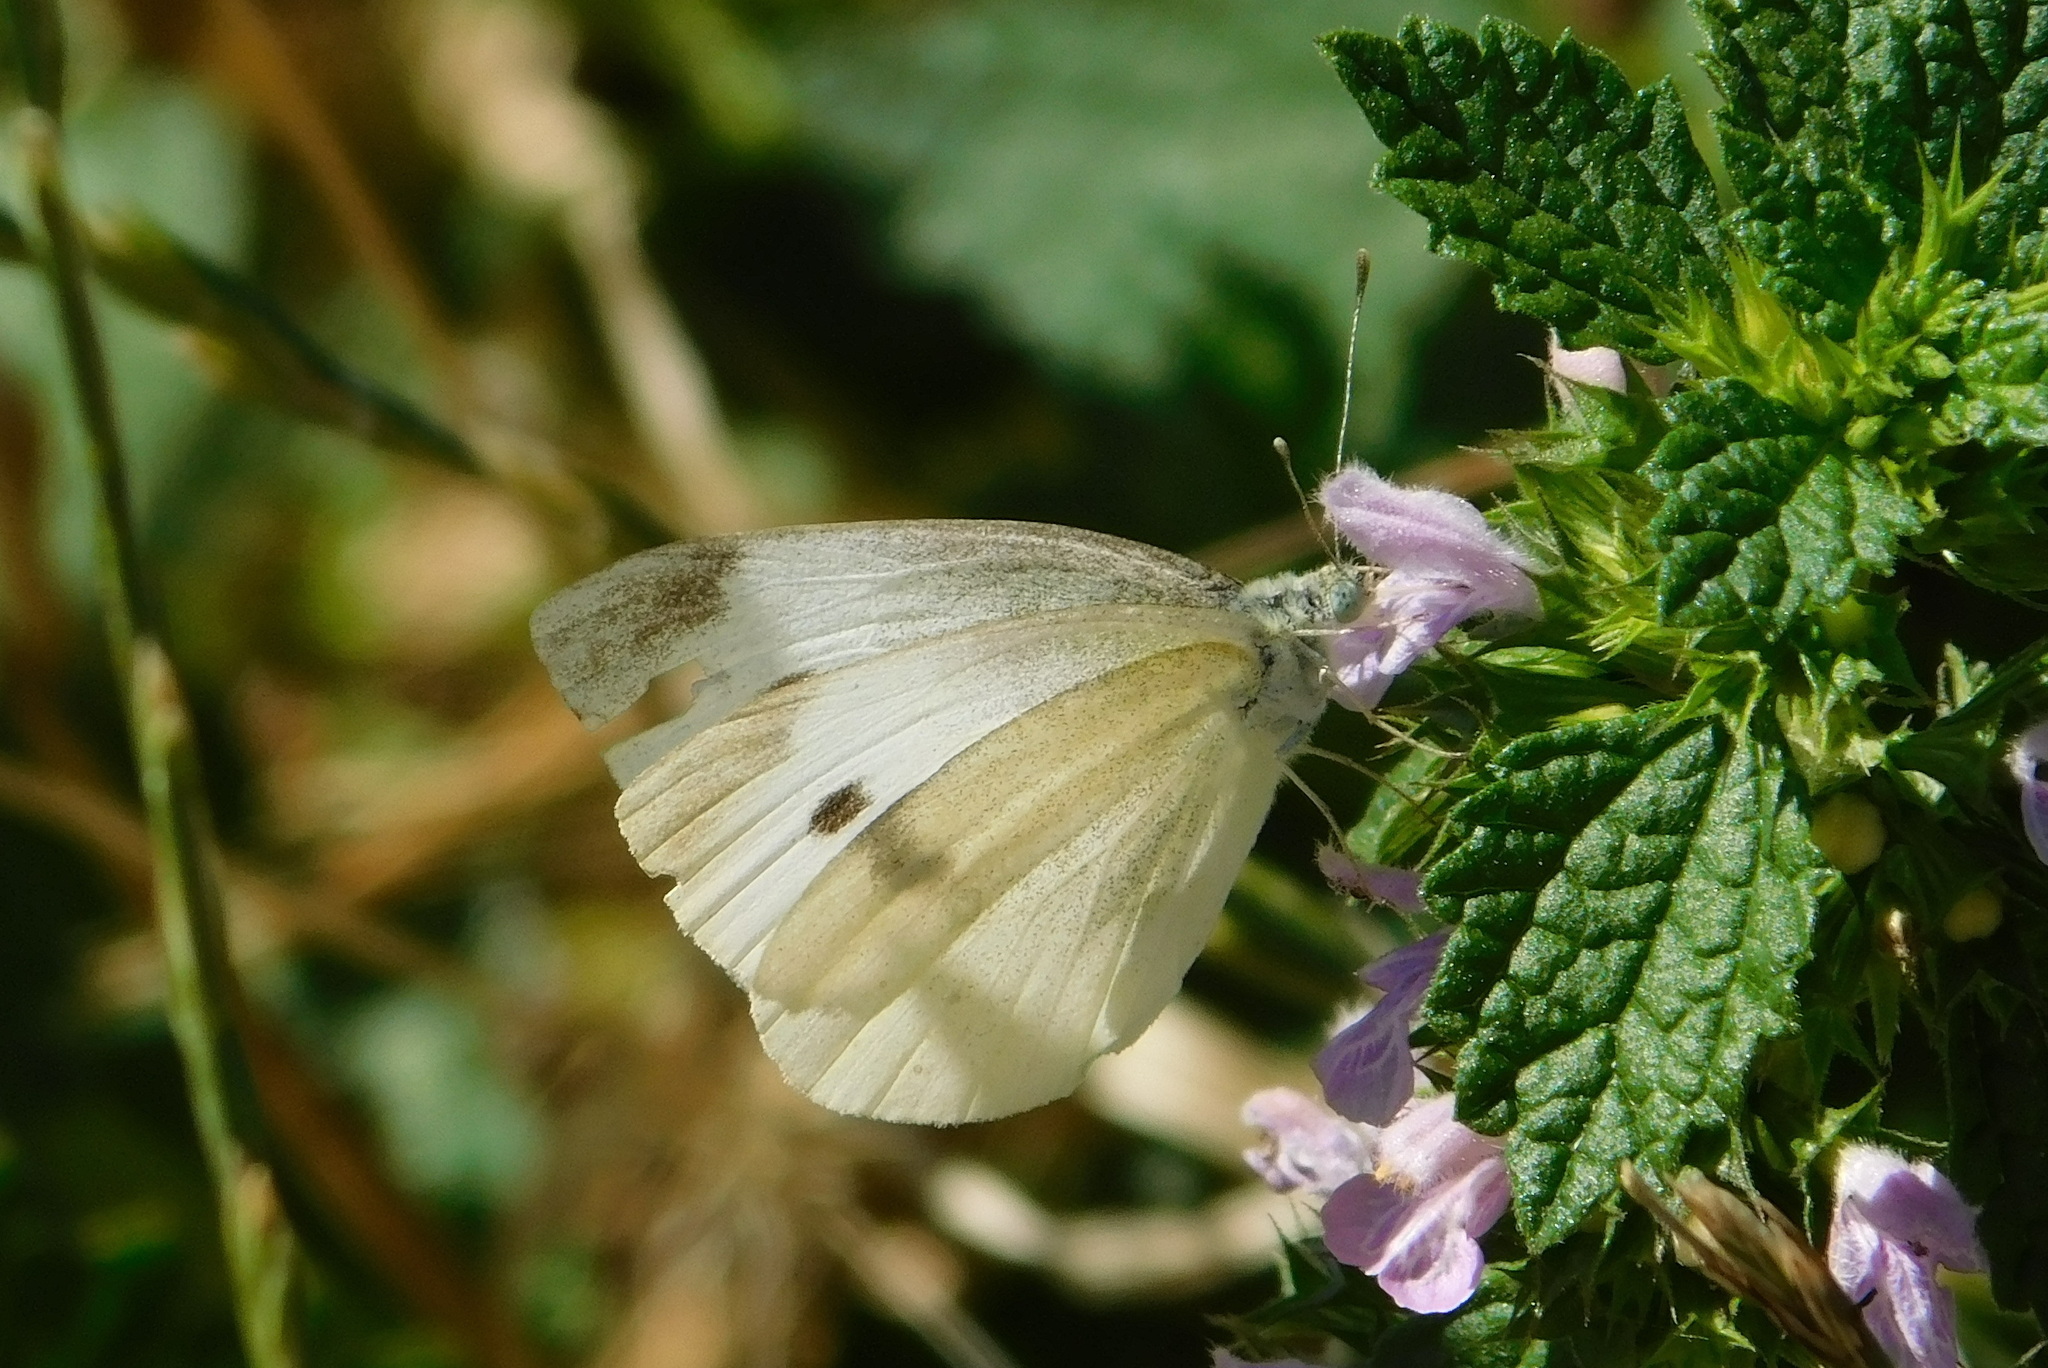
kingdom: Animalia
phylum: Arthropoda
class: Insecta
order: Lepidoptera
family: Pieridae
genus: Pieris
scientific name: Pieris rapae
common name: Small white
